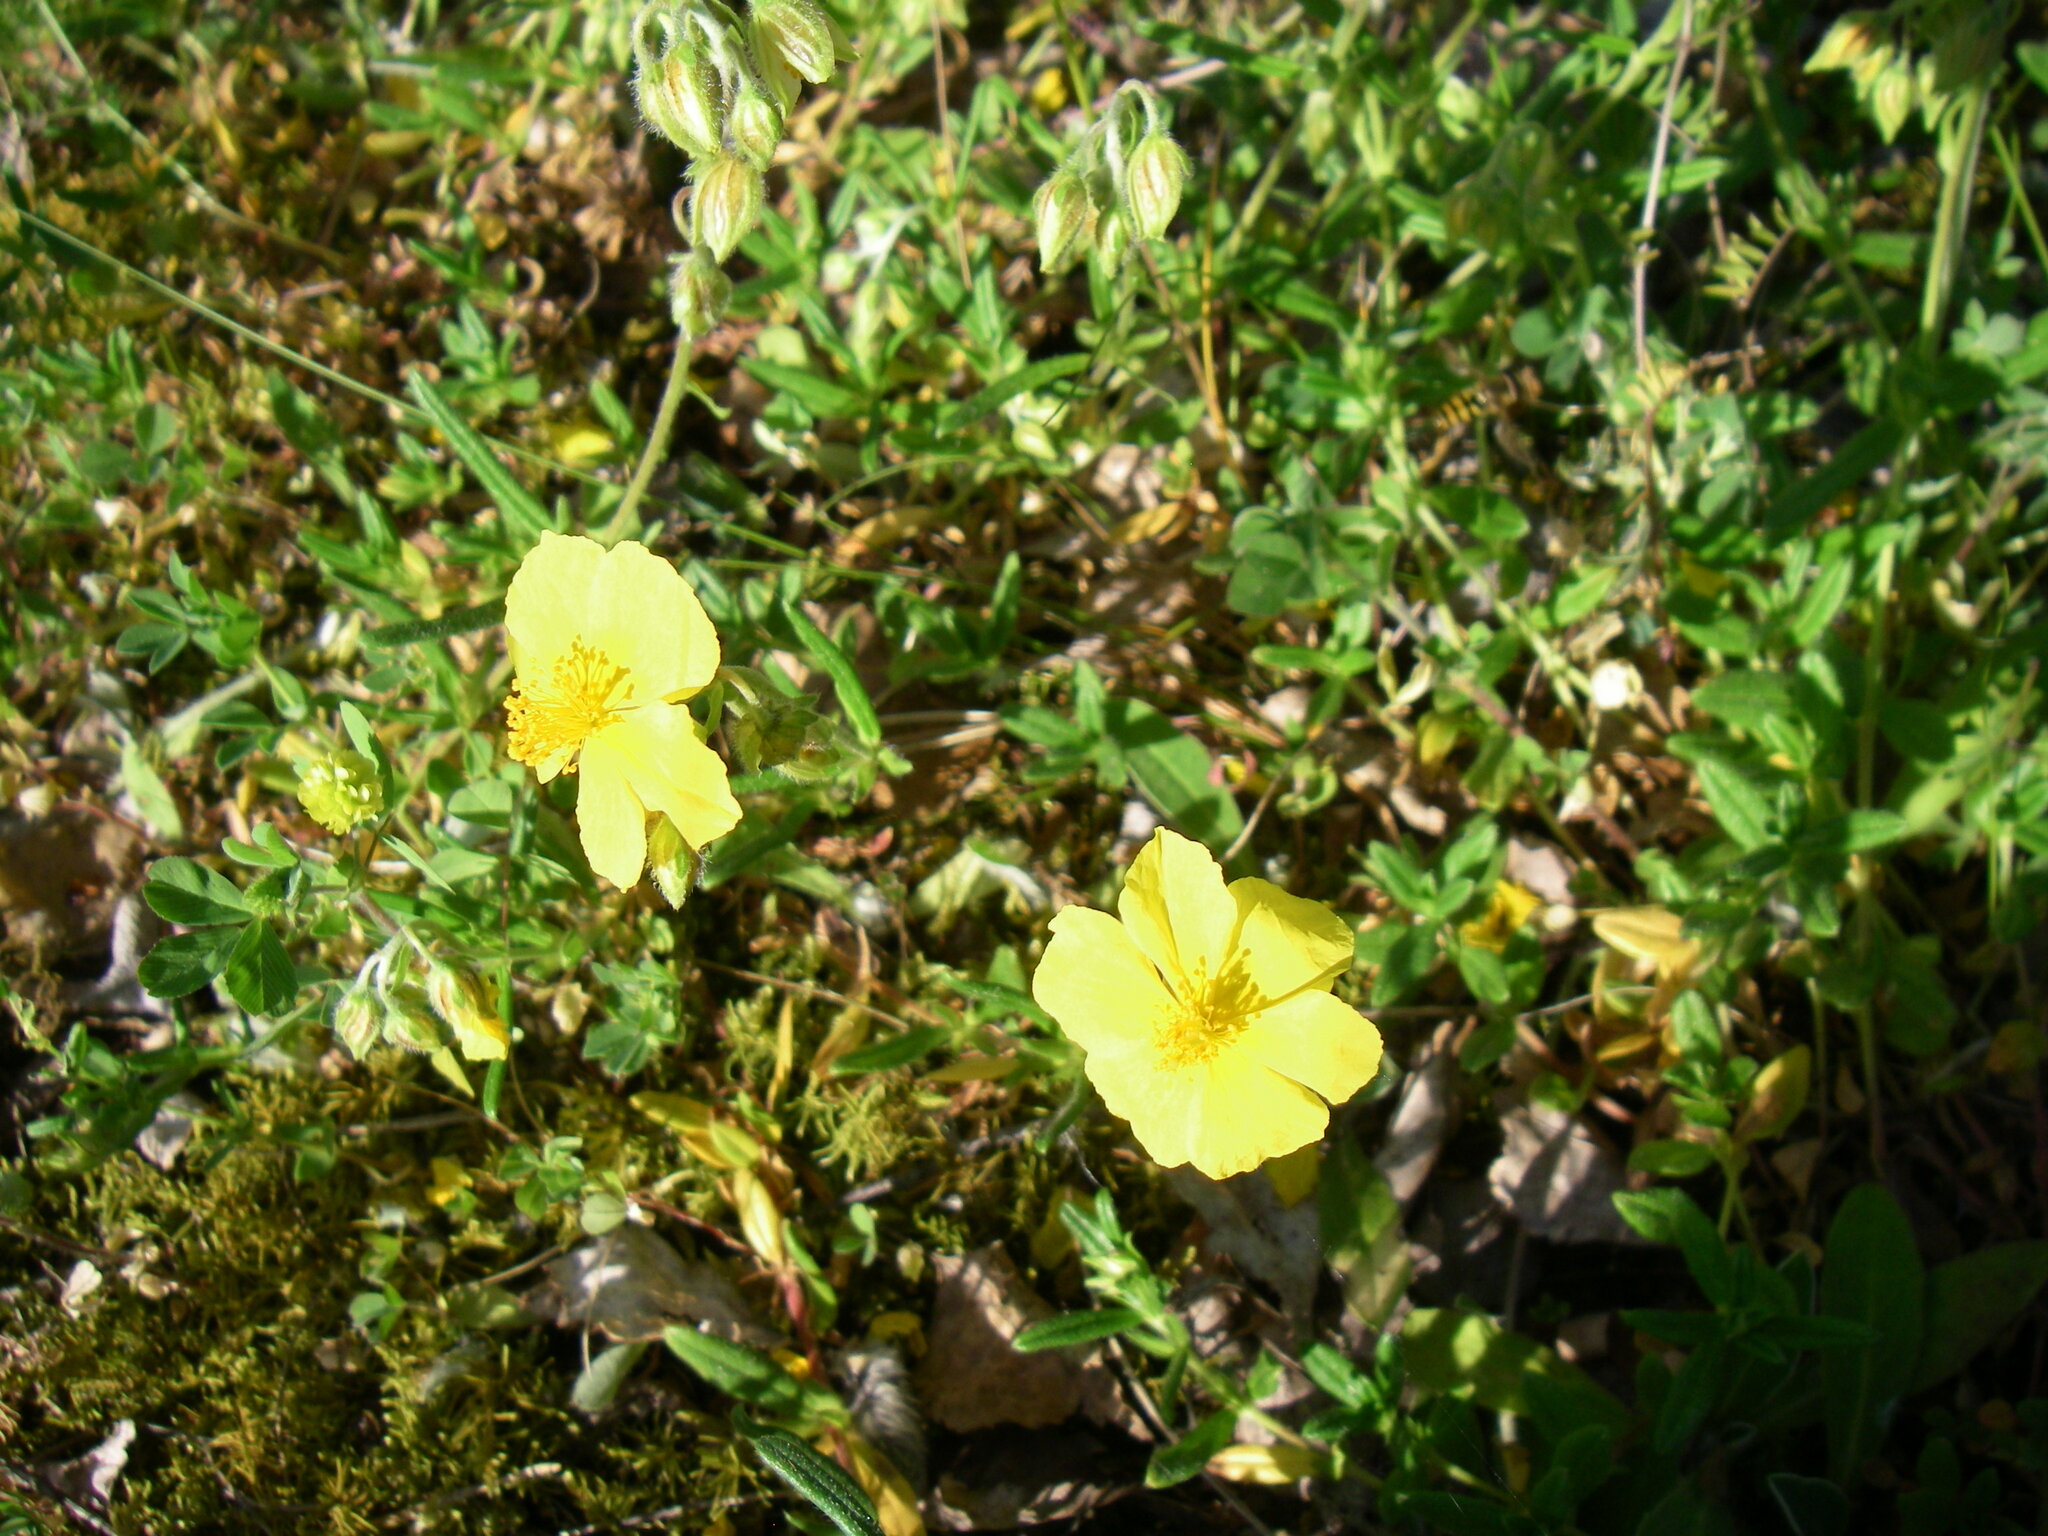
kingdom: Plantae
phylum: Tracheophyta
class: Magnoliopsida
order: Malvales
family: Cistaceae
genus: Helianthemum
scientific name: Helianthemum nummularium
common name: Common rock-rose
